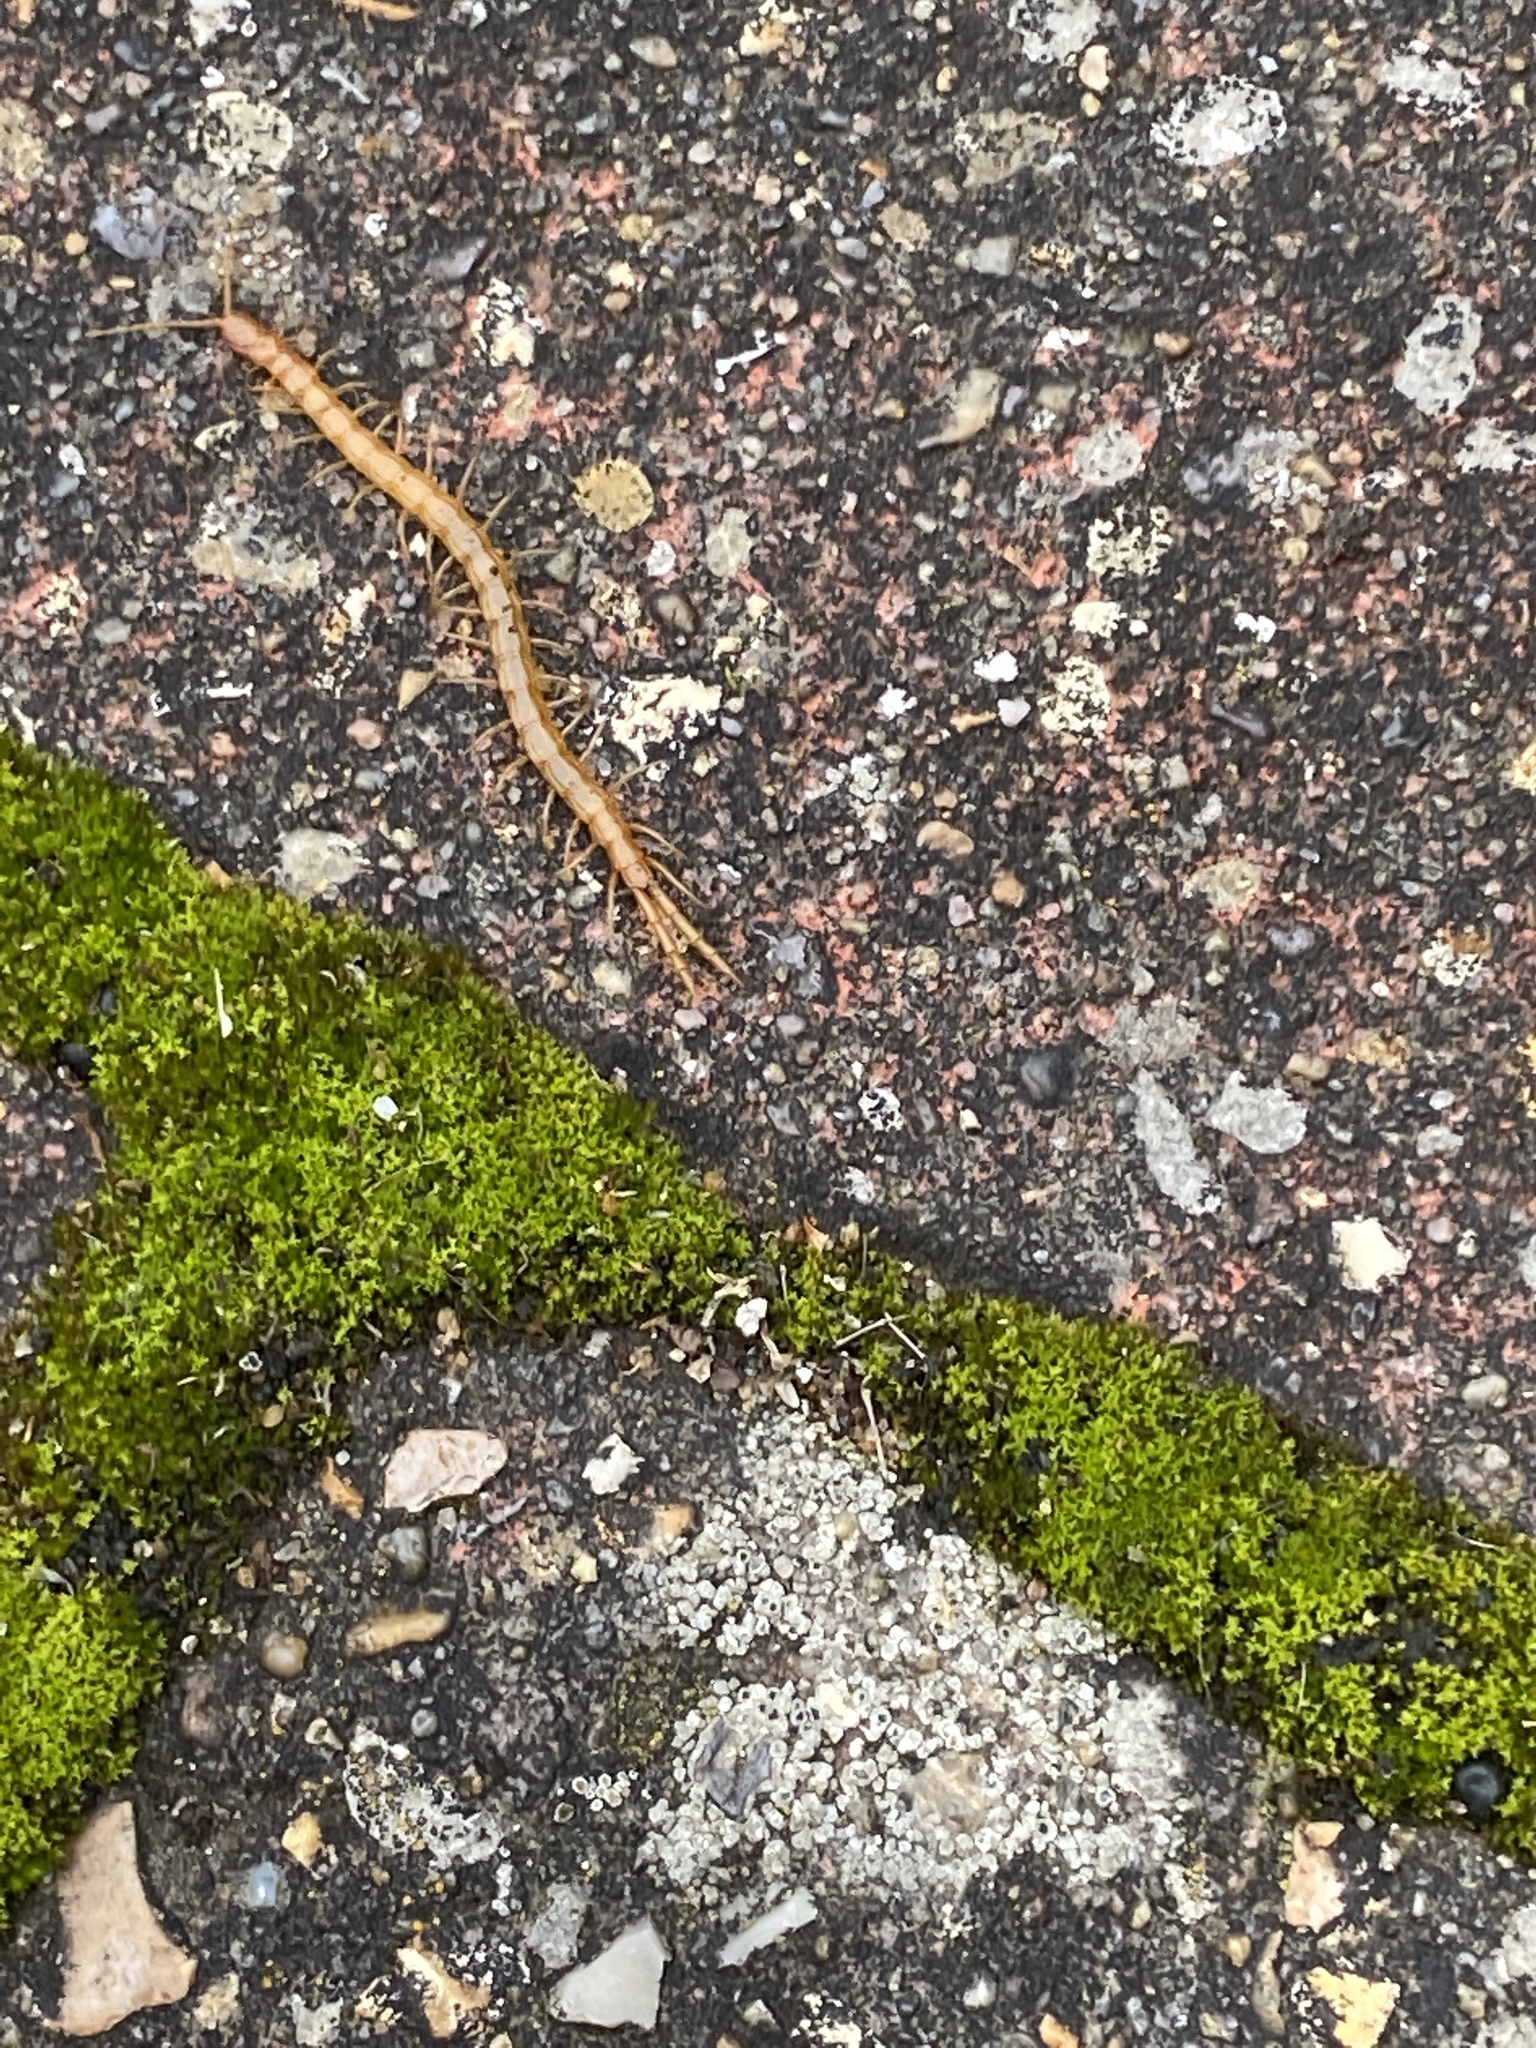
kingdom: Animalia
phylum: Arthropoda
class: Chilopoda
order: Scolopendromorpha
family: Cryptopidae
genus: Cryptops
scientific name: Cryptops
